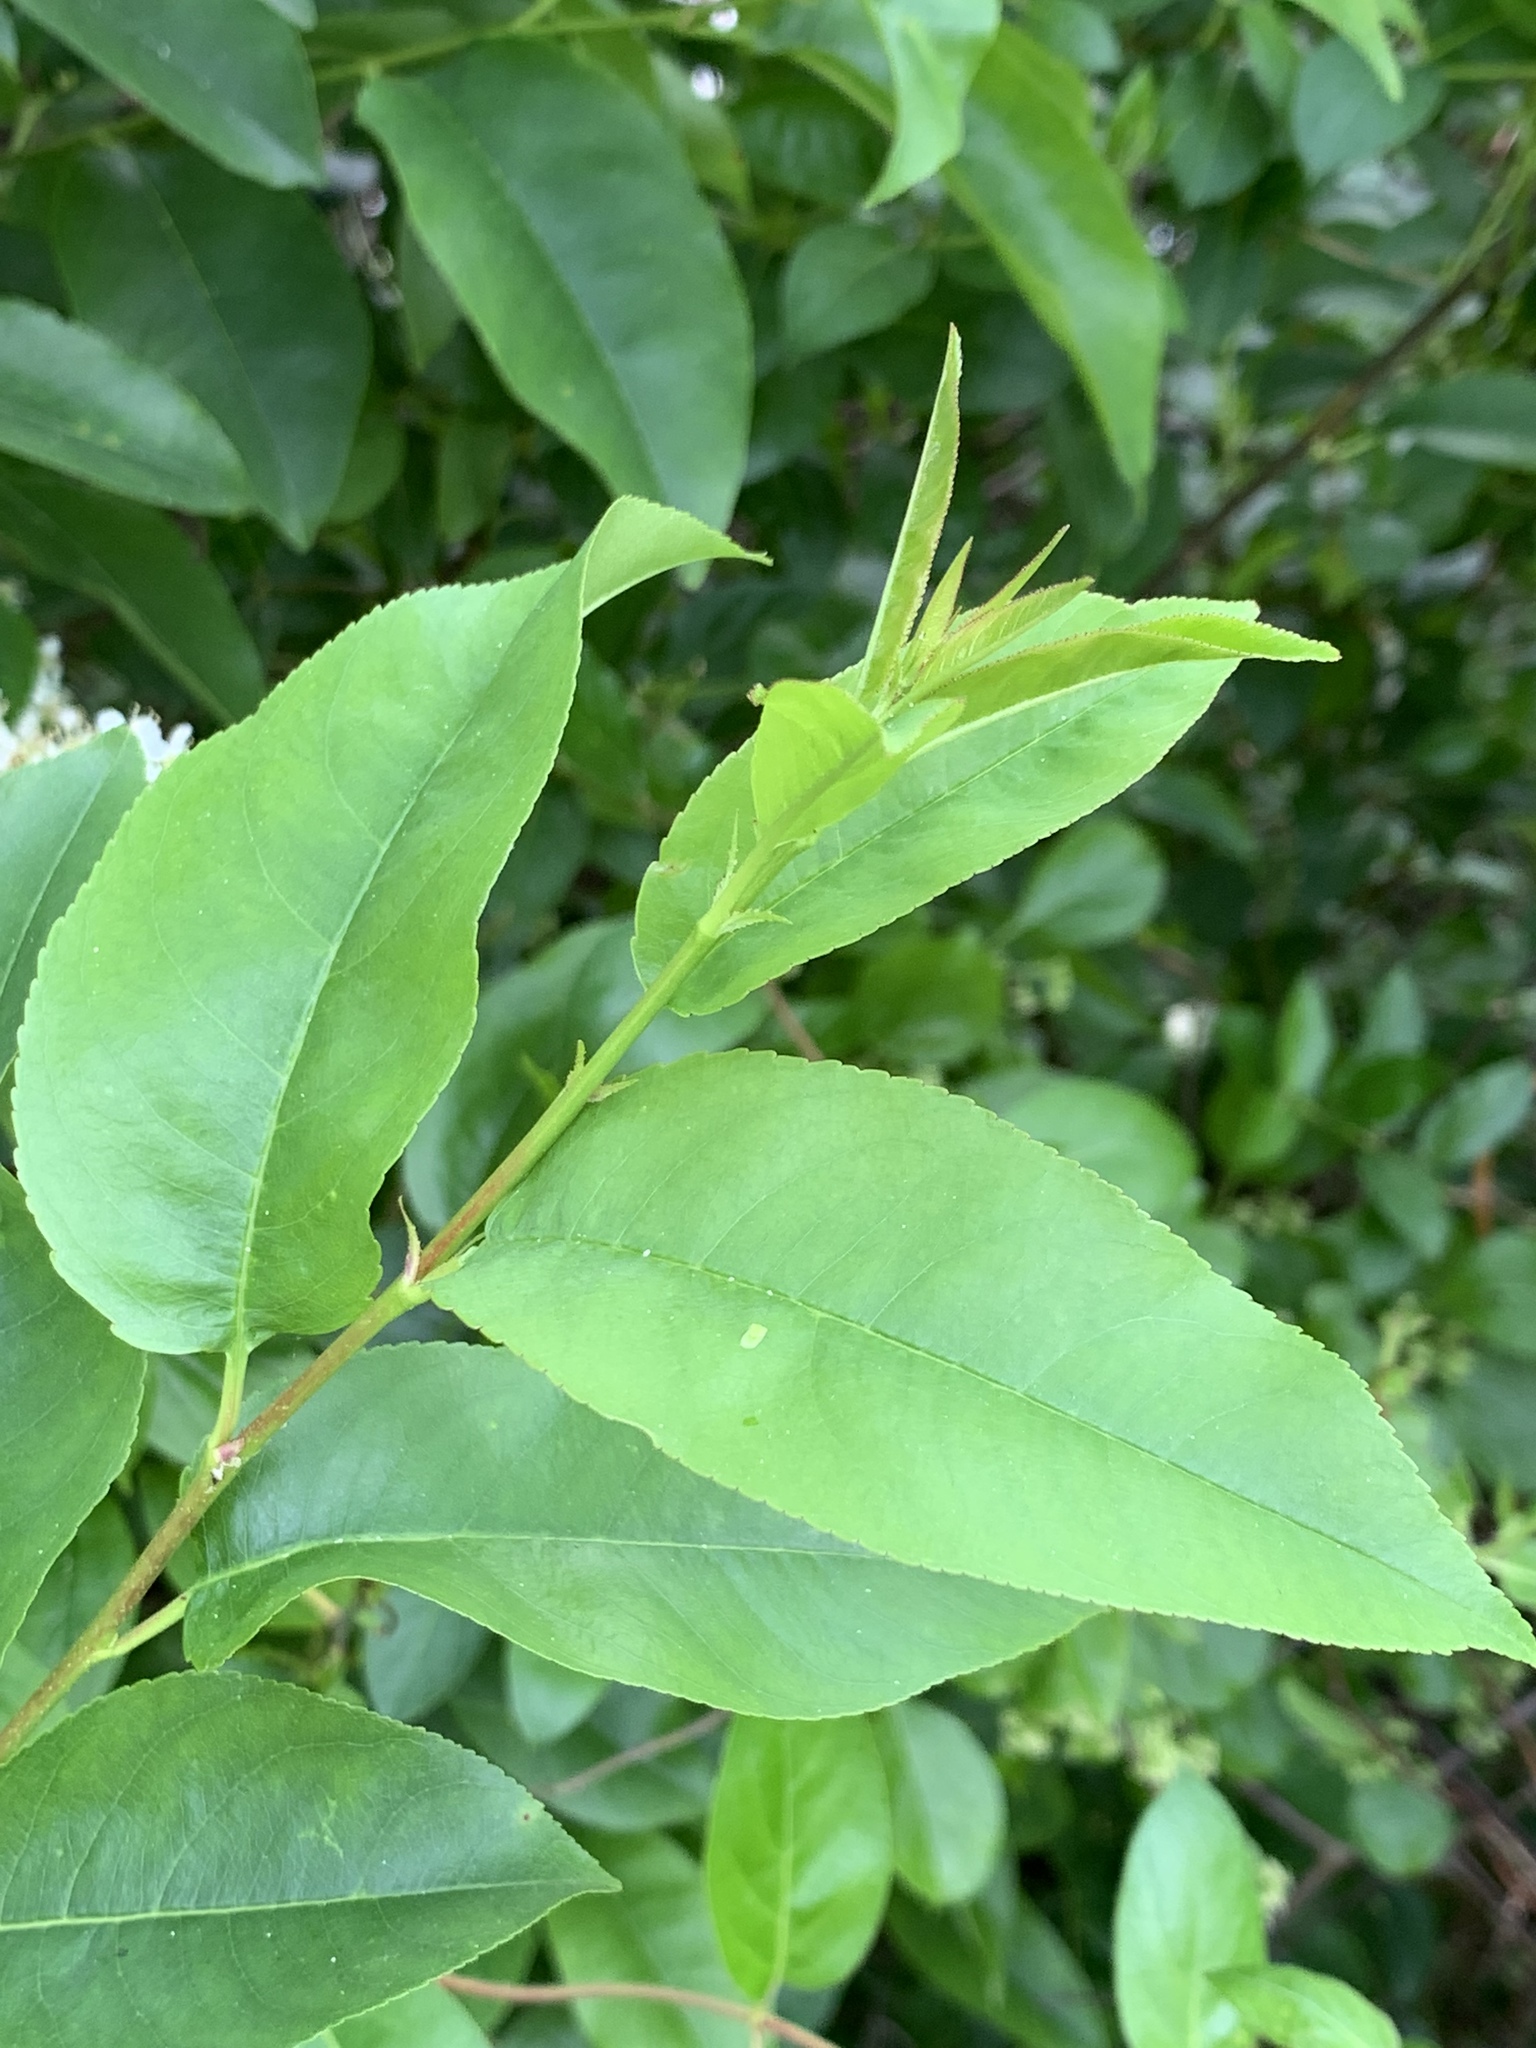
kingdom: Plantae
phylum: Tracheophyta
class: Magnoliopsida
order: Rosales
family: Rosaceae
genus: Prunus
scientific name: Prunus serotina
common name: Black cherry
